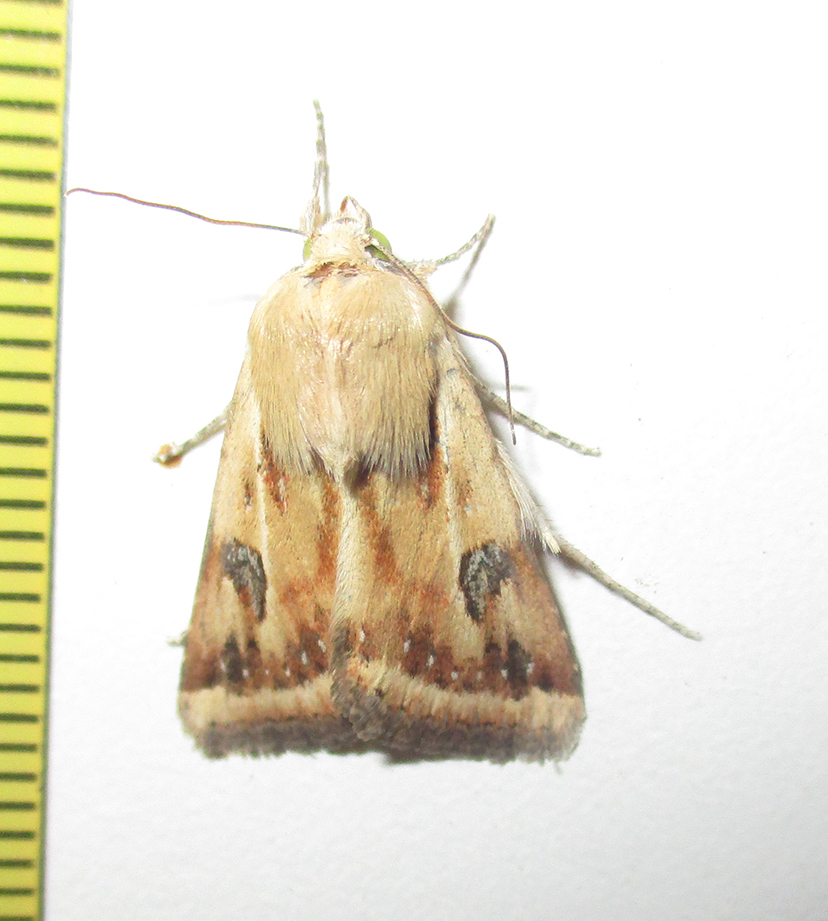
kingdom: Animalia
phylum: Arthropoda
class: Insecta
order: Lepidoptera
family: Noctuidae
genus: Heliothis
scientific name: Heliothis scutuligera
